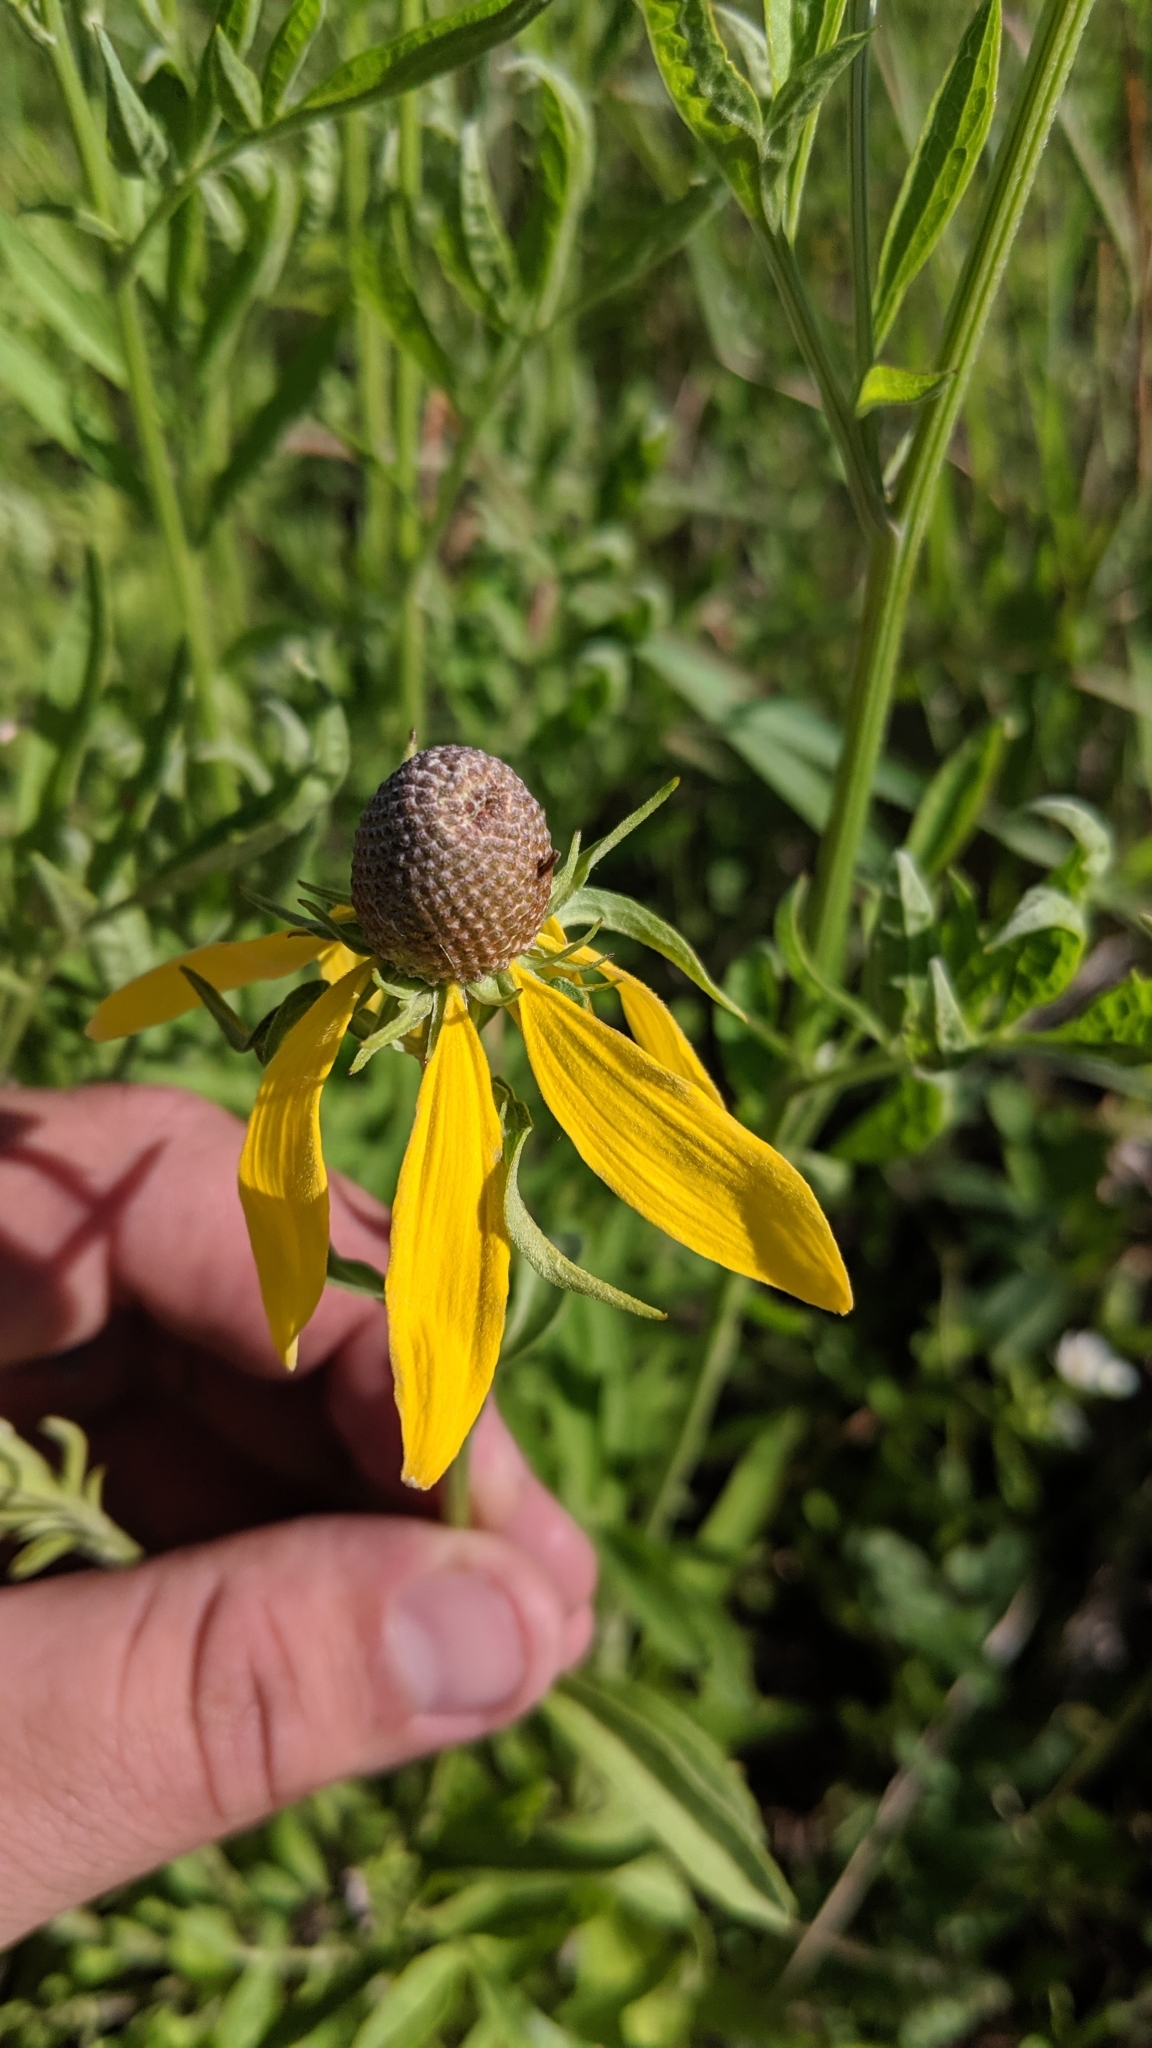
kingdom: Plantae
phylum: Tracheophyta
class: Magnoliopsida
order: Asterales
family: Asteraceae
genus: Ratibida
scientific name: Ratibida pinnata
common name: Drooping prairie-coneflower
